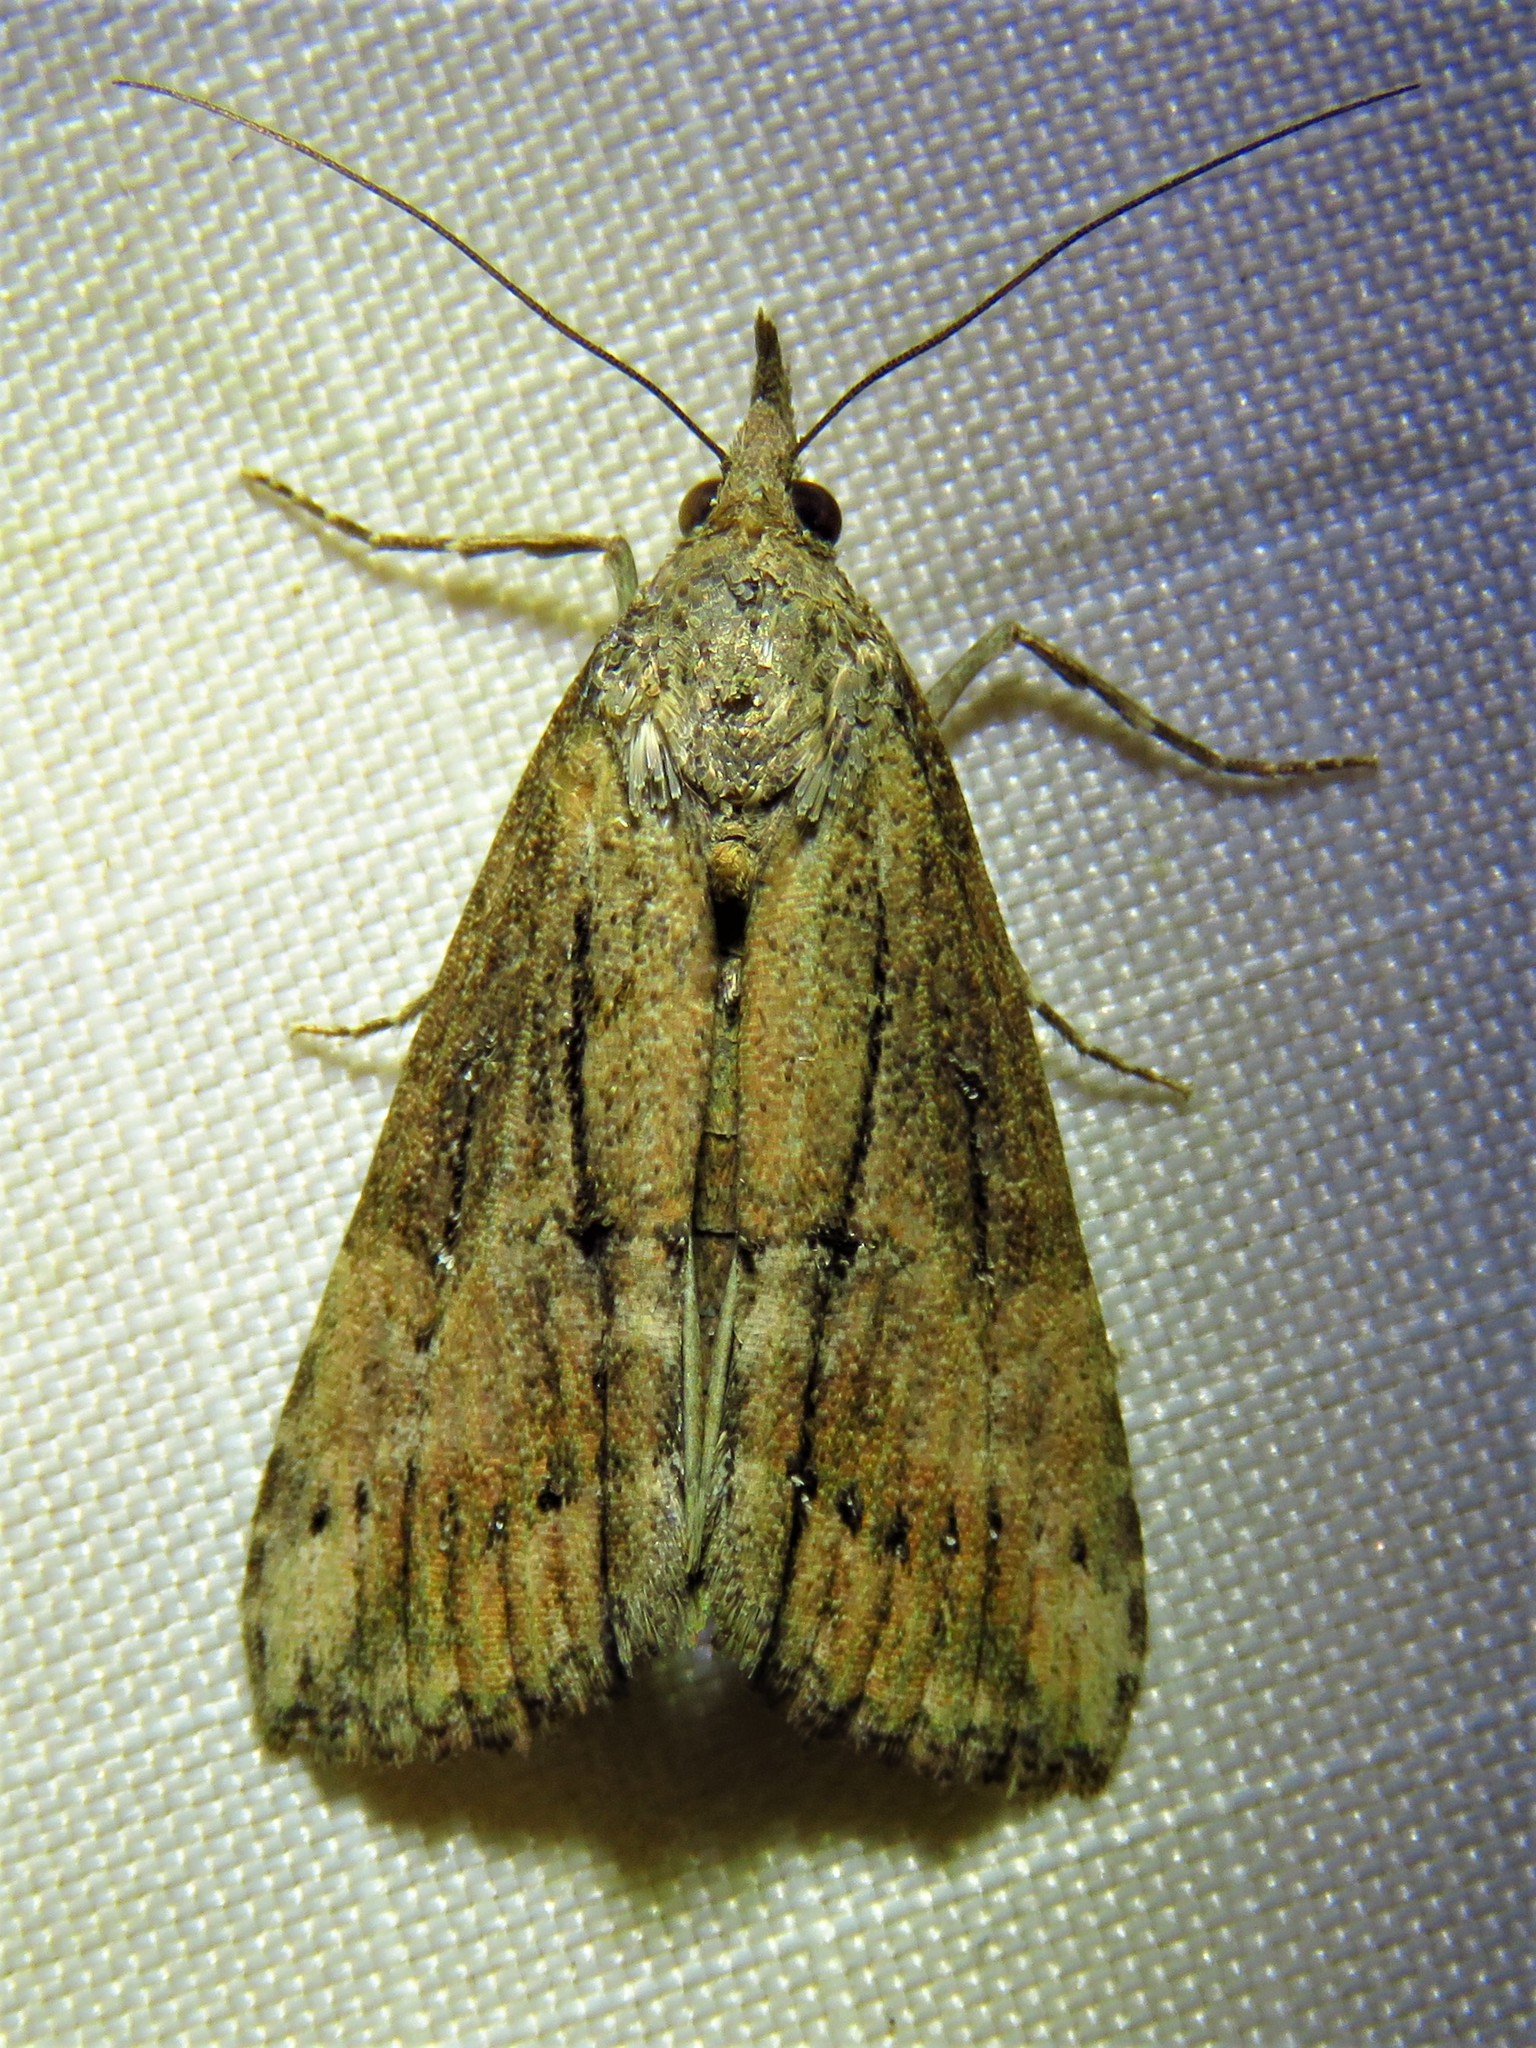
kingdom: Animalia
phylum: Arthropoda
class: Insecta
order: Lepidoptera
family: Erebidae
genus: Hypena
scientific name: Hypena scabra
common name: Green cloverworm
